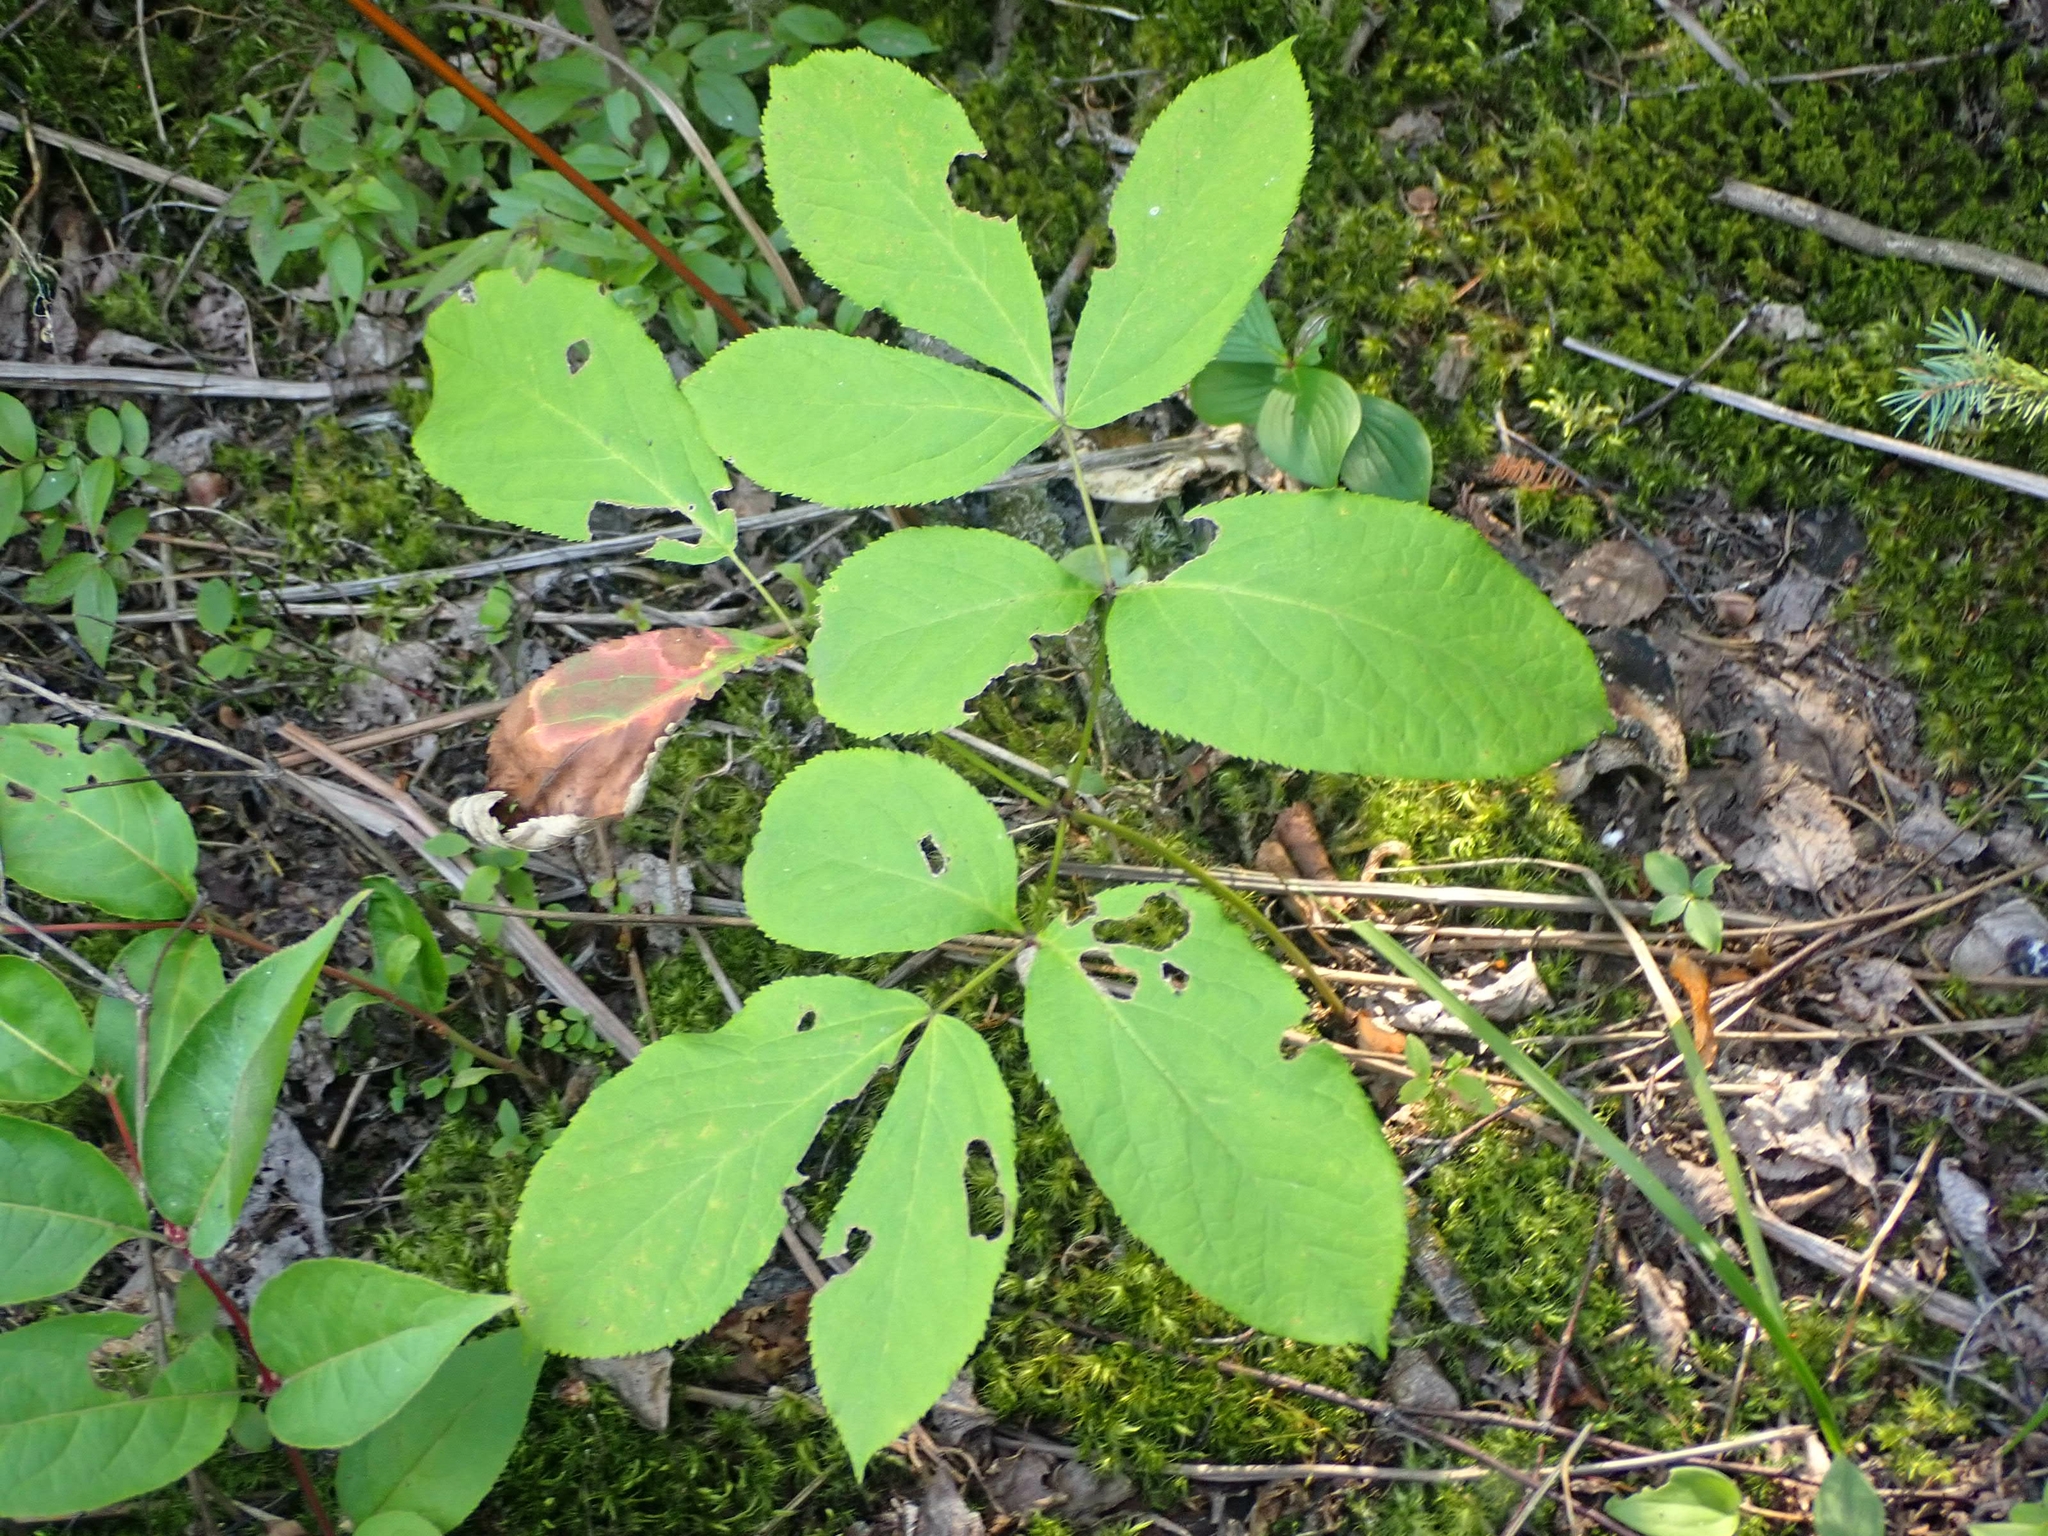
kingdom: Plantae
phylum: Tracheophyta
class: Magnoliopsida
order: Apiales
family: Araliaceae
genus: Aralia
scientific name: Aralia nudicaulis
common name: Wild sarsaparilla
